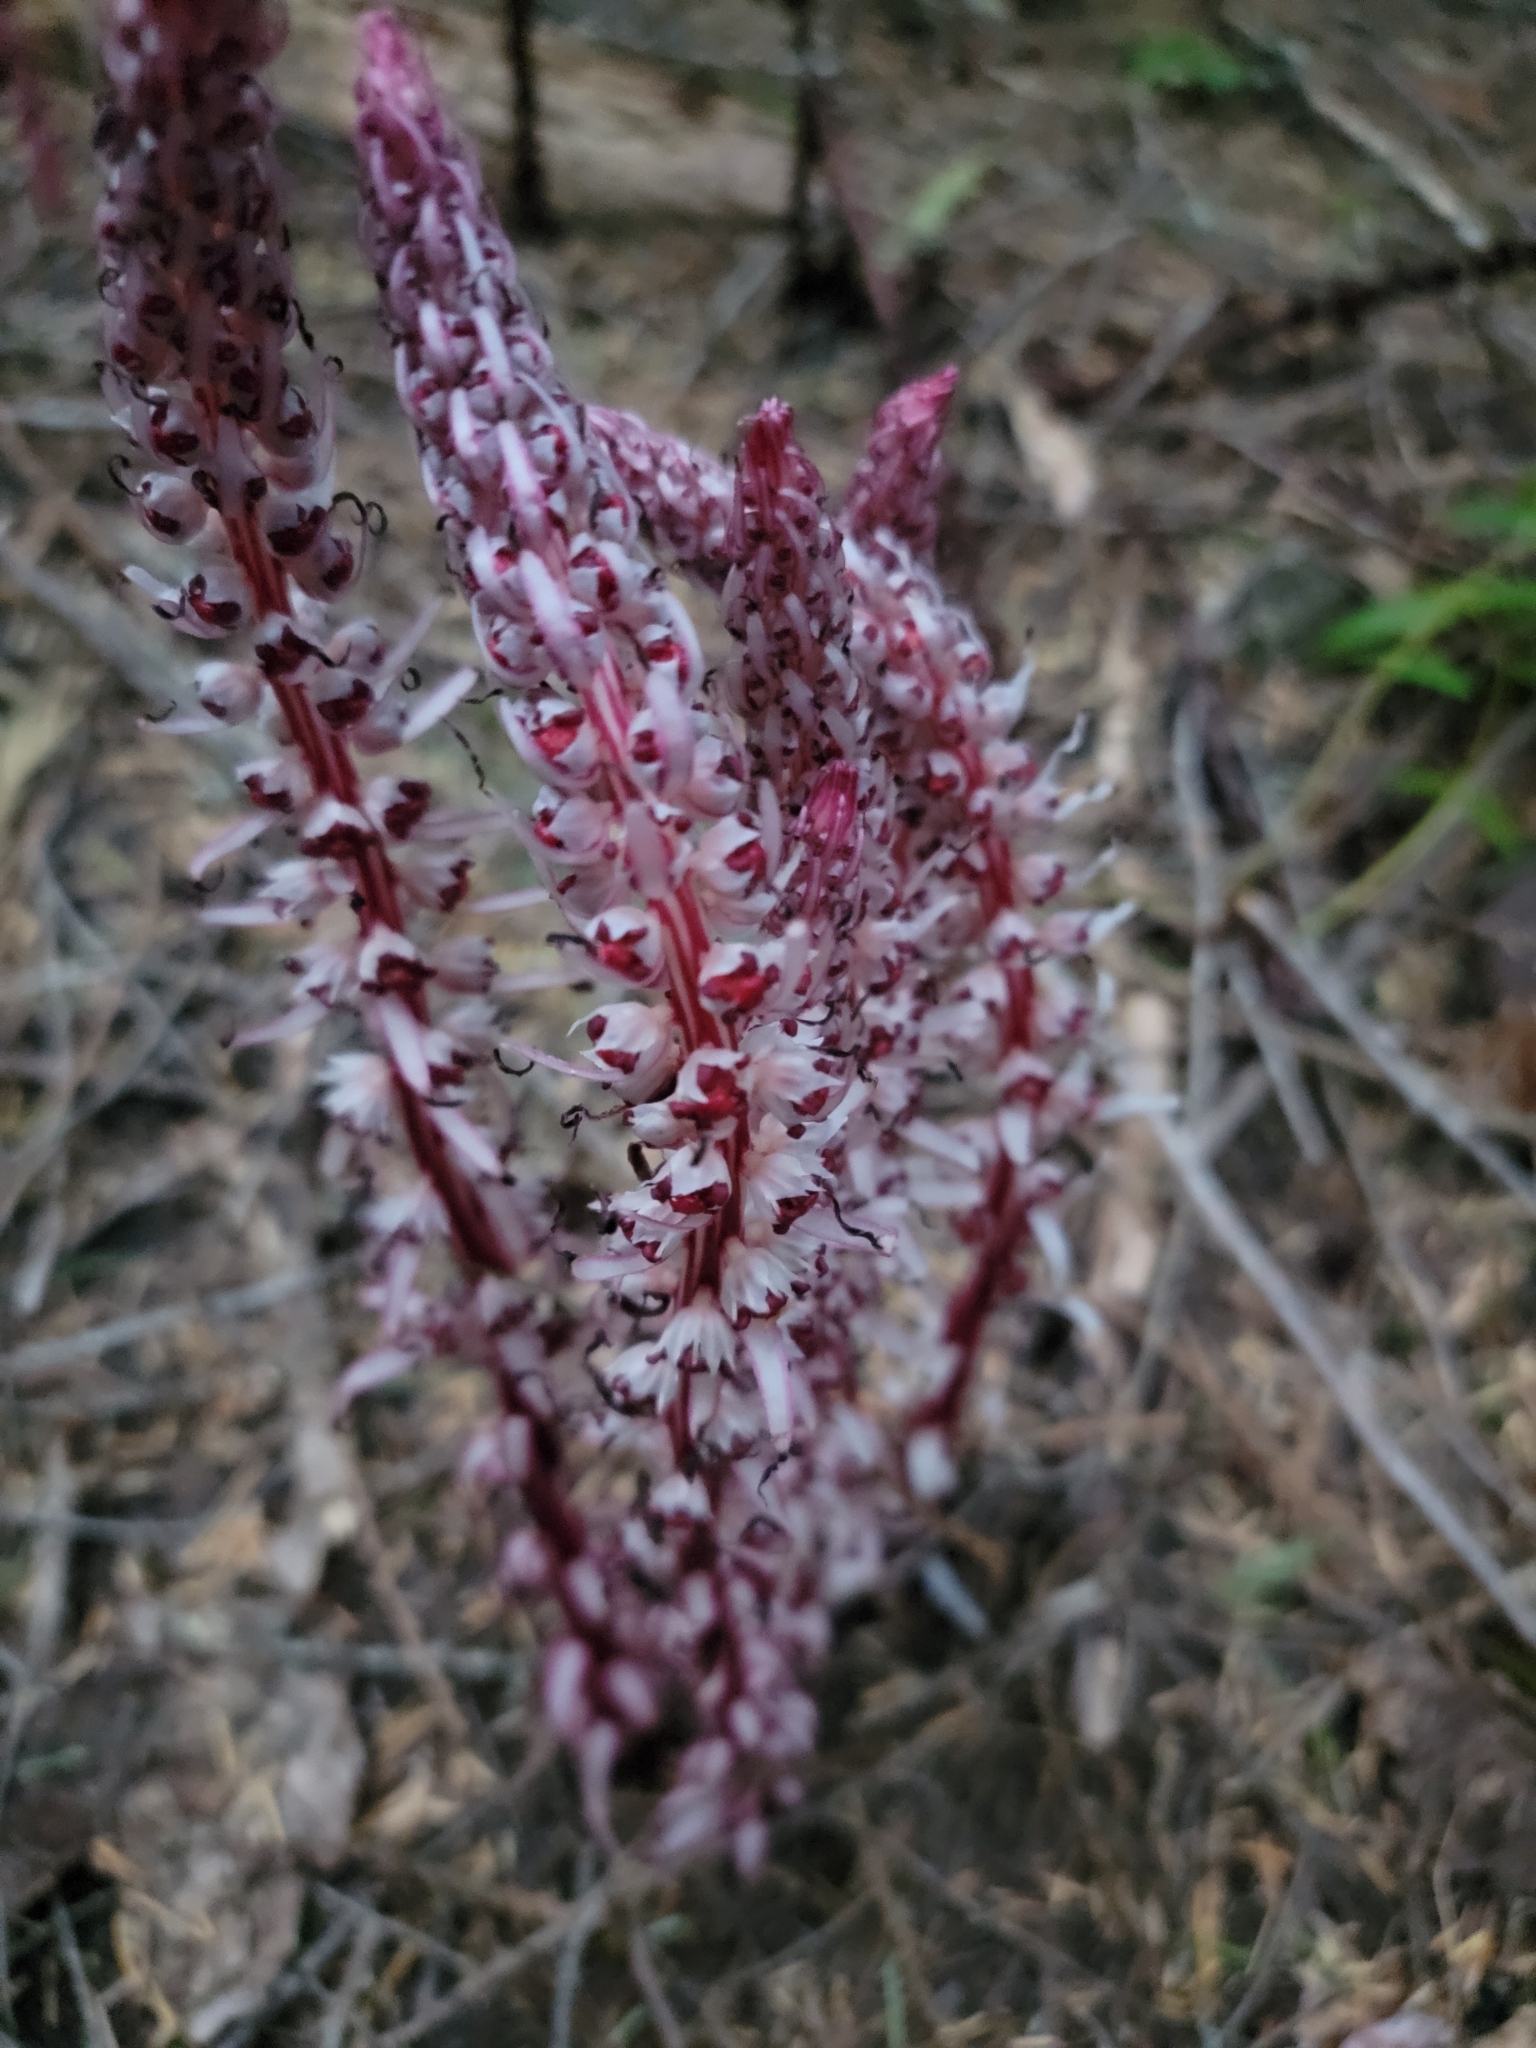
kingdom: Plantae
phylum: Tracheophyta
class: Magnoliopsida
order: Ericales
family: Ericaceae
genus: Allotropa
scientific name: Allotropa virgata
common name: Candy-striped allotropa
